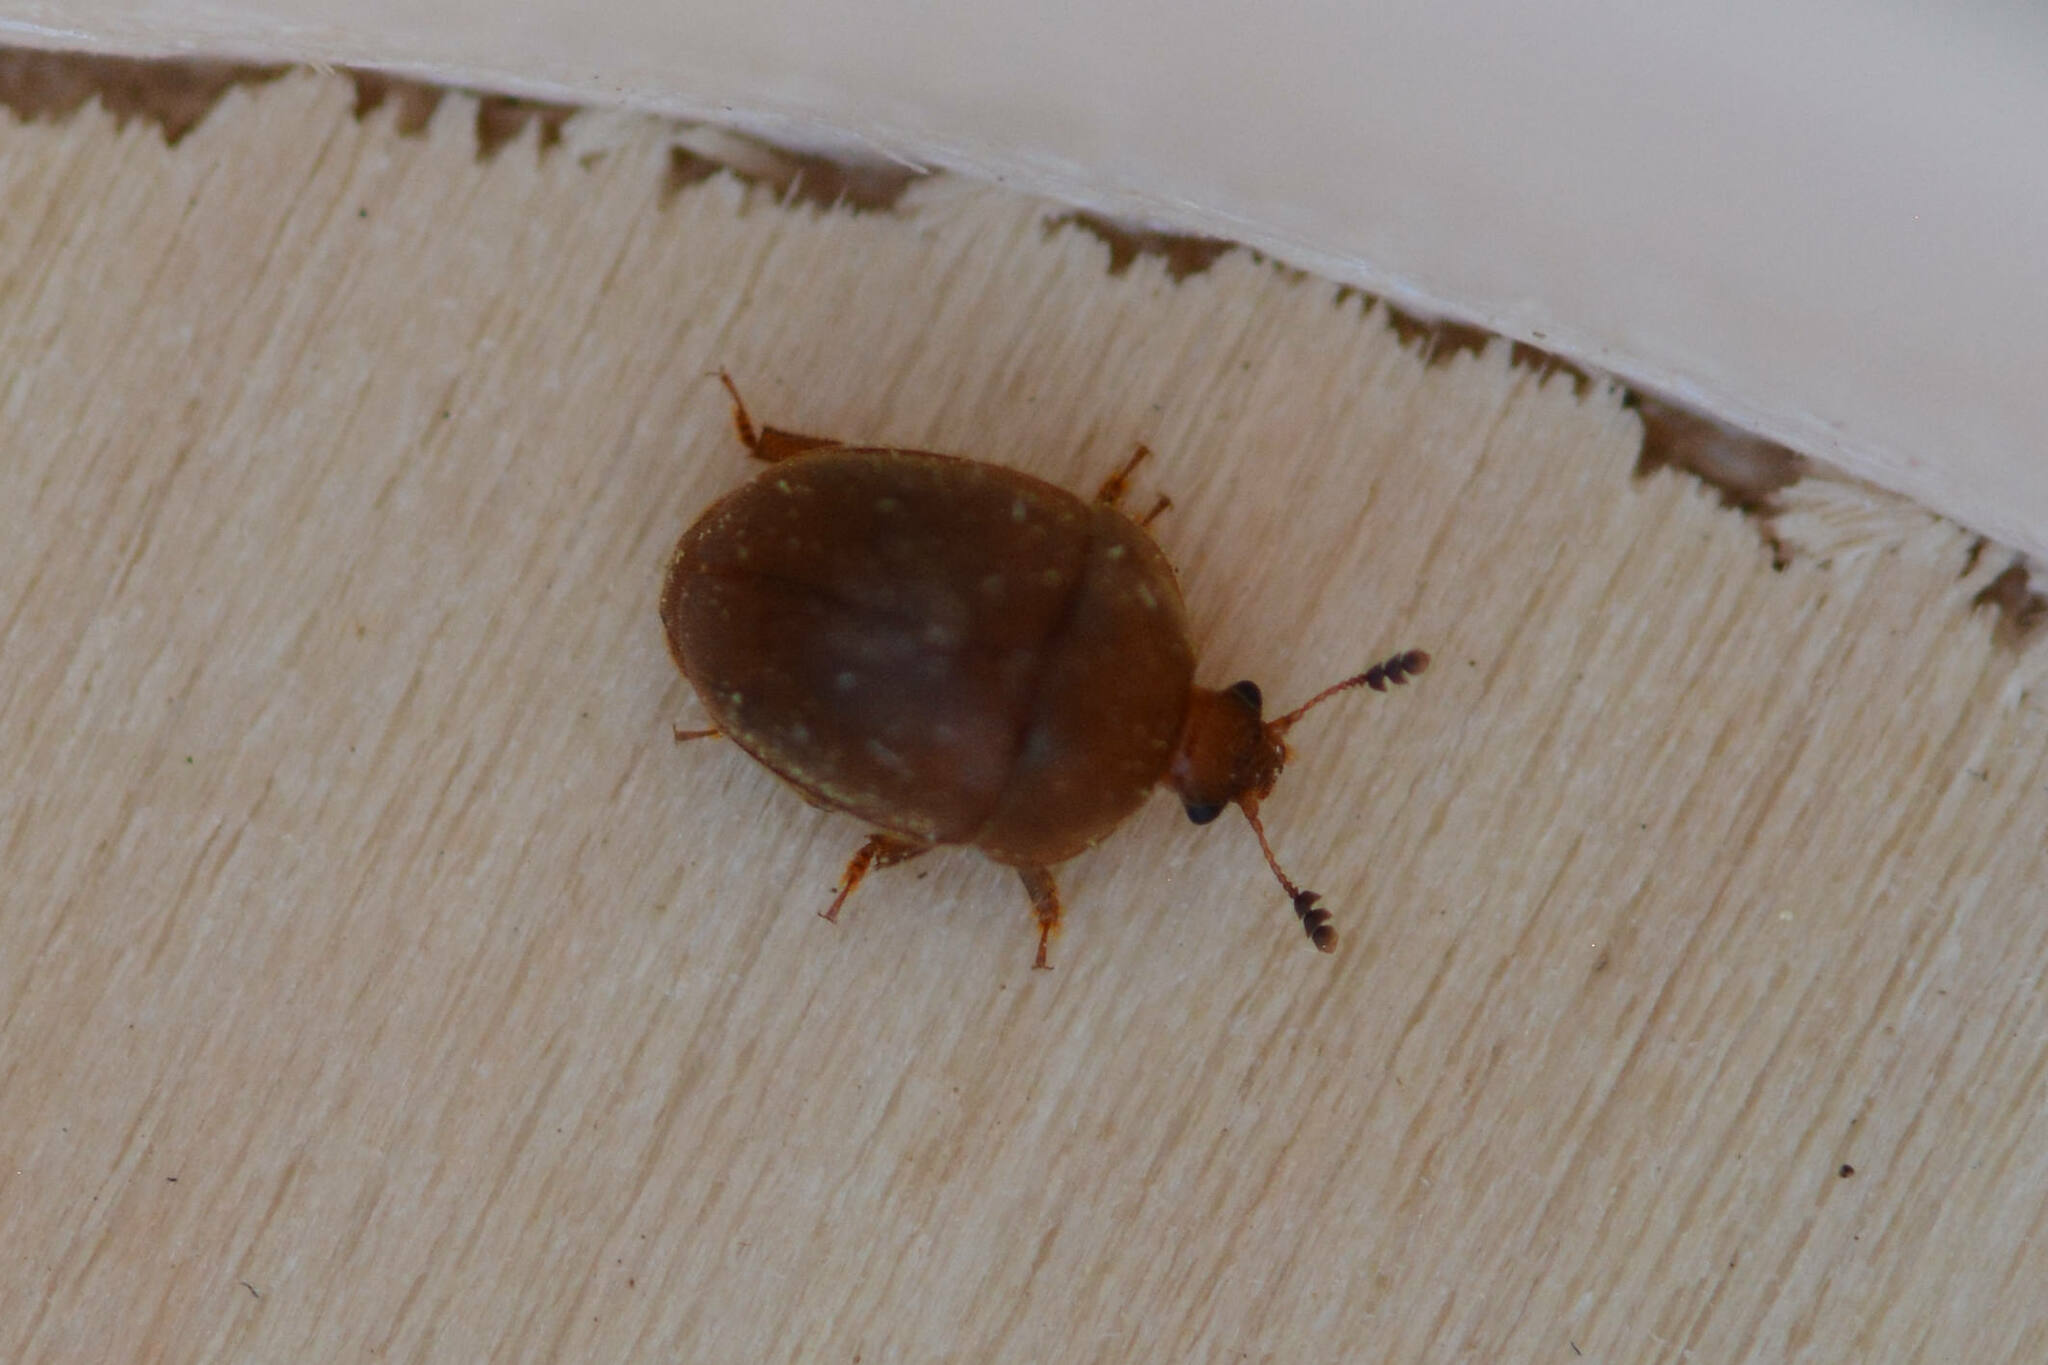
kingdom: Animalia
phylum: Arthropoda
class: Insecta
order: Coleoptera
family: Nitidulidae
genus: Cychramus
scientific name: Cychramus luteus
